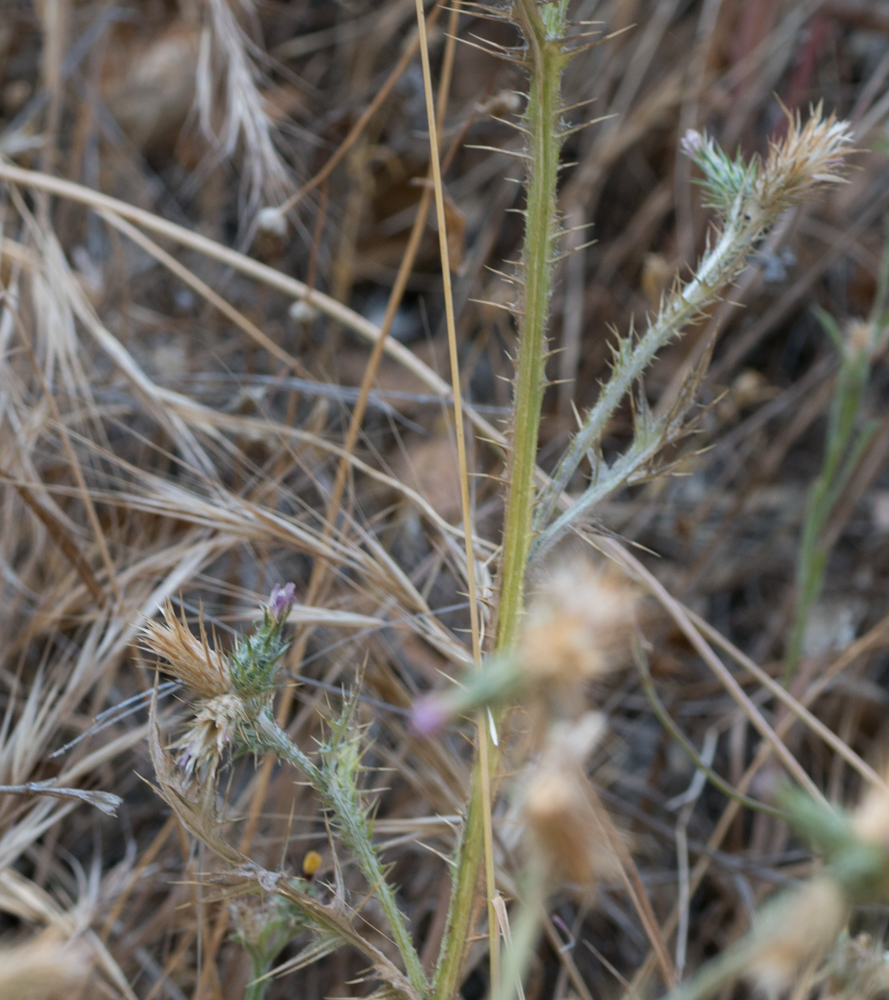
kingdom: Plantae
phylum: Tracheophyta
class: Magnoliopsida
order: Asterales
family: Asteraceae
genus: Carduus
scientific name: Carduus pycnocephalus
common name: Plymouth thistle
